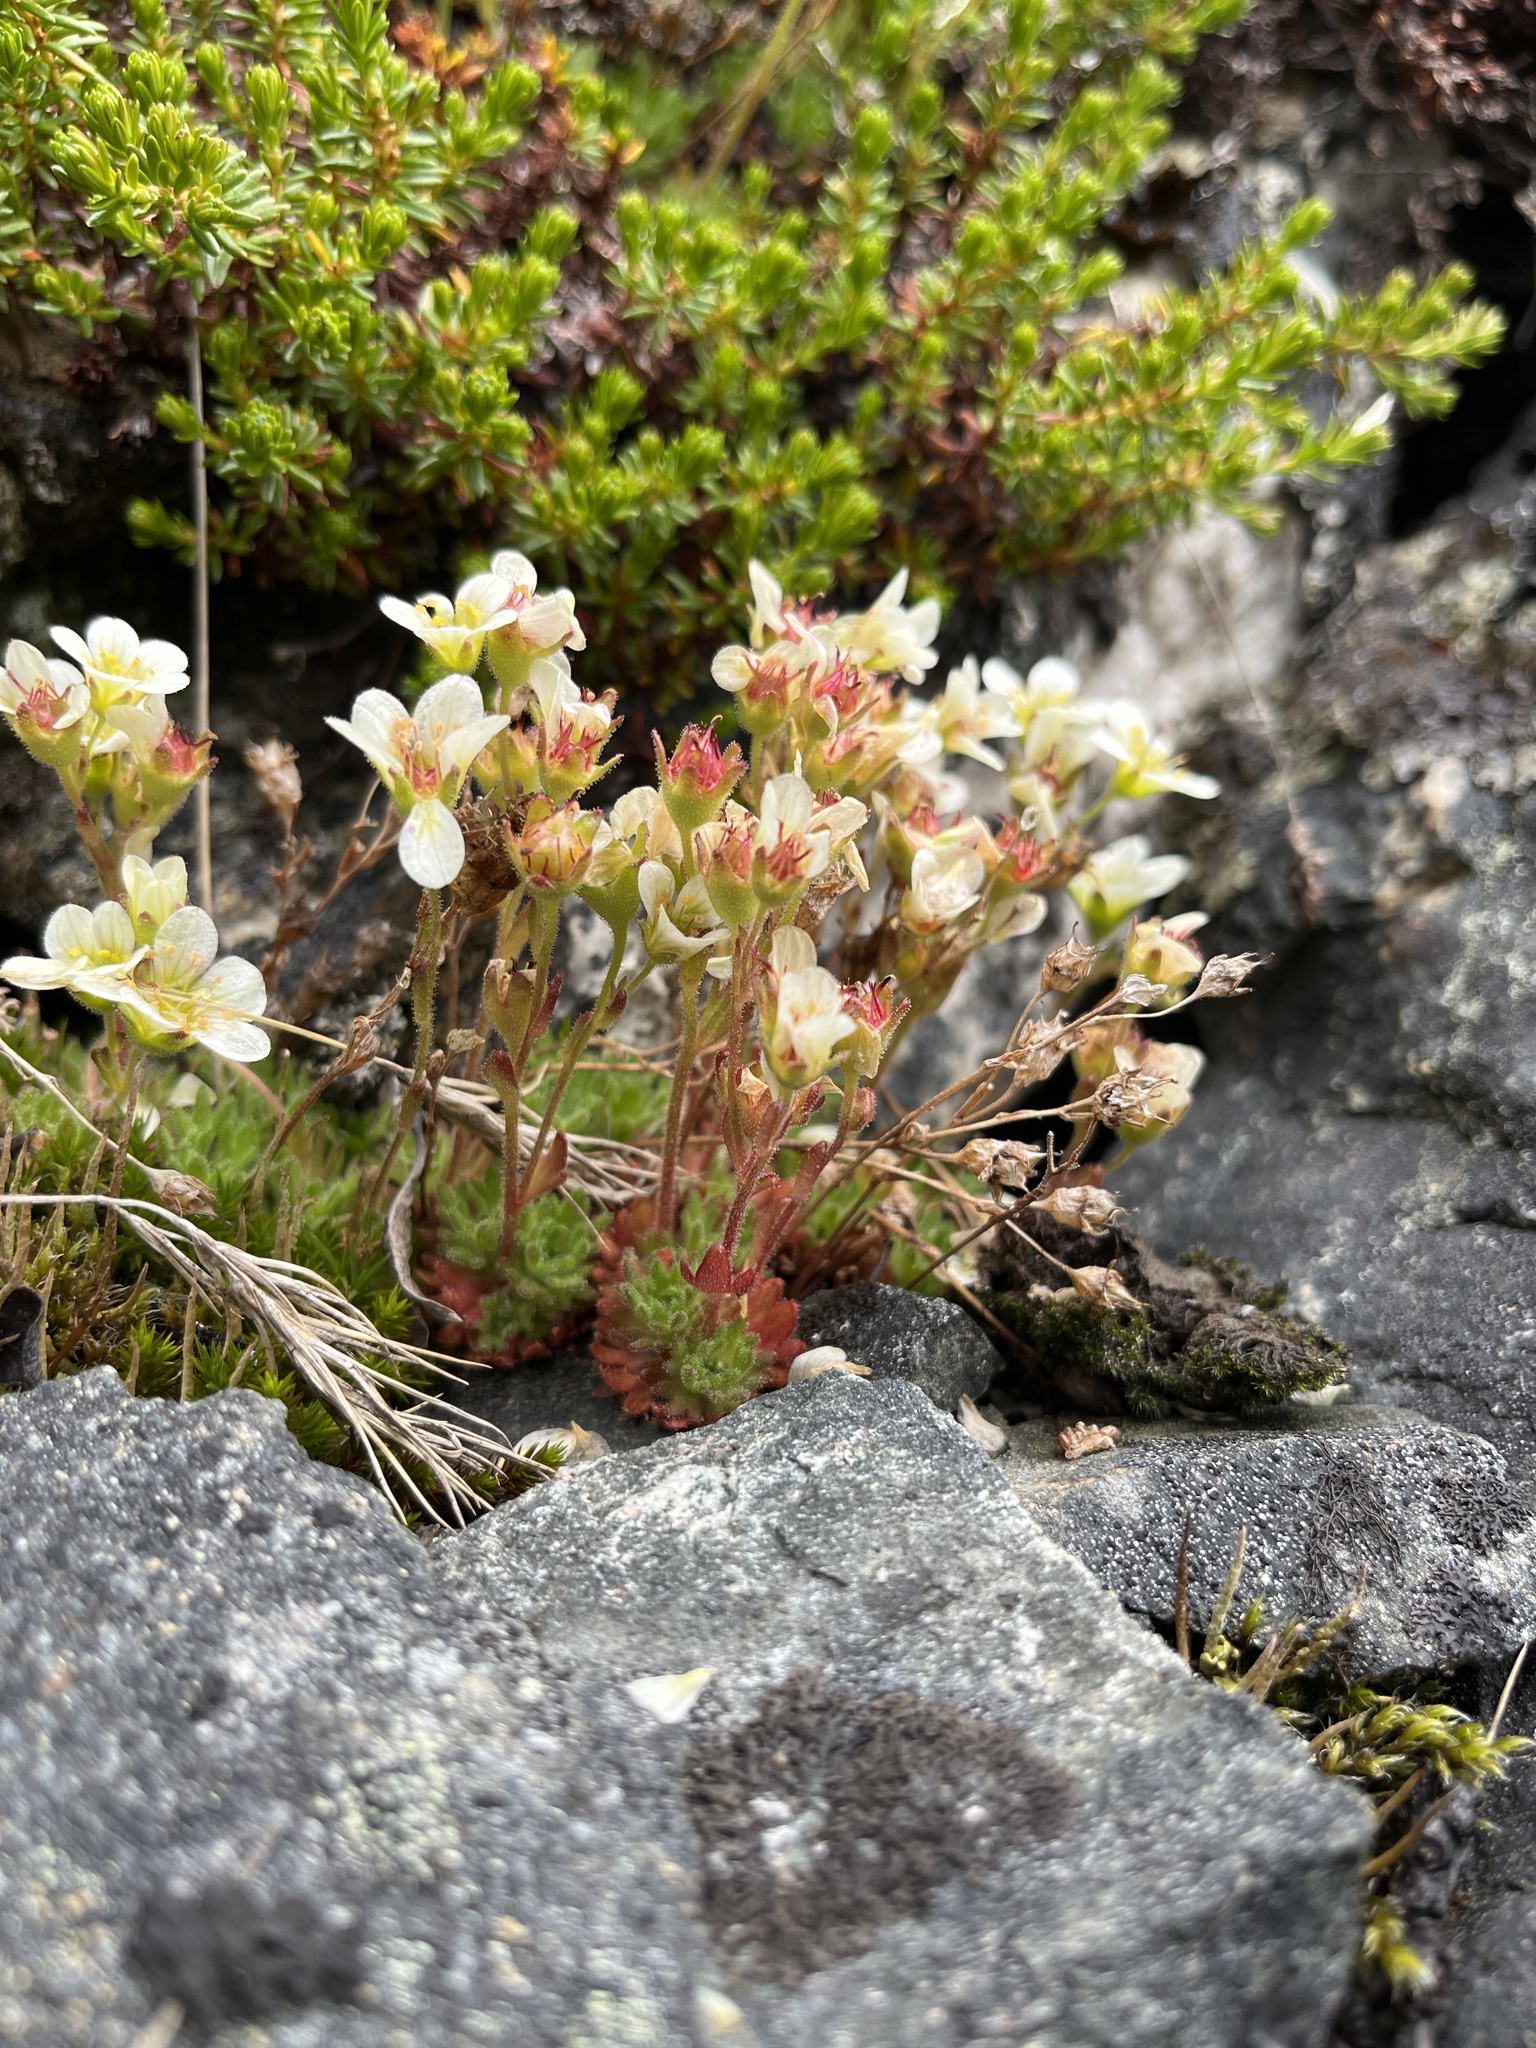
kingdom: Plantae
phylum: Tracheophyta
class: Magnoliopsida
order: Saxifragales
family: Saxifragaceae
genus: Saxifraga
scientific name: Saxifraga cespitosa
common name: Tufted saxifrage
